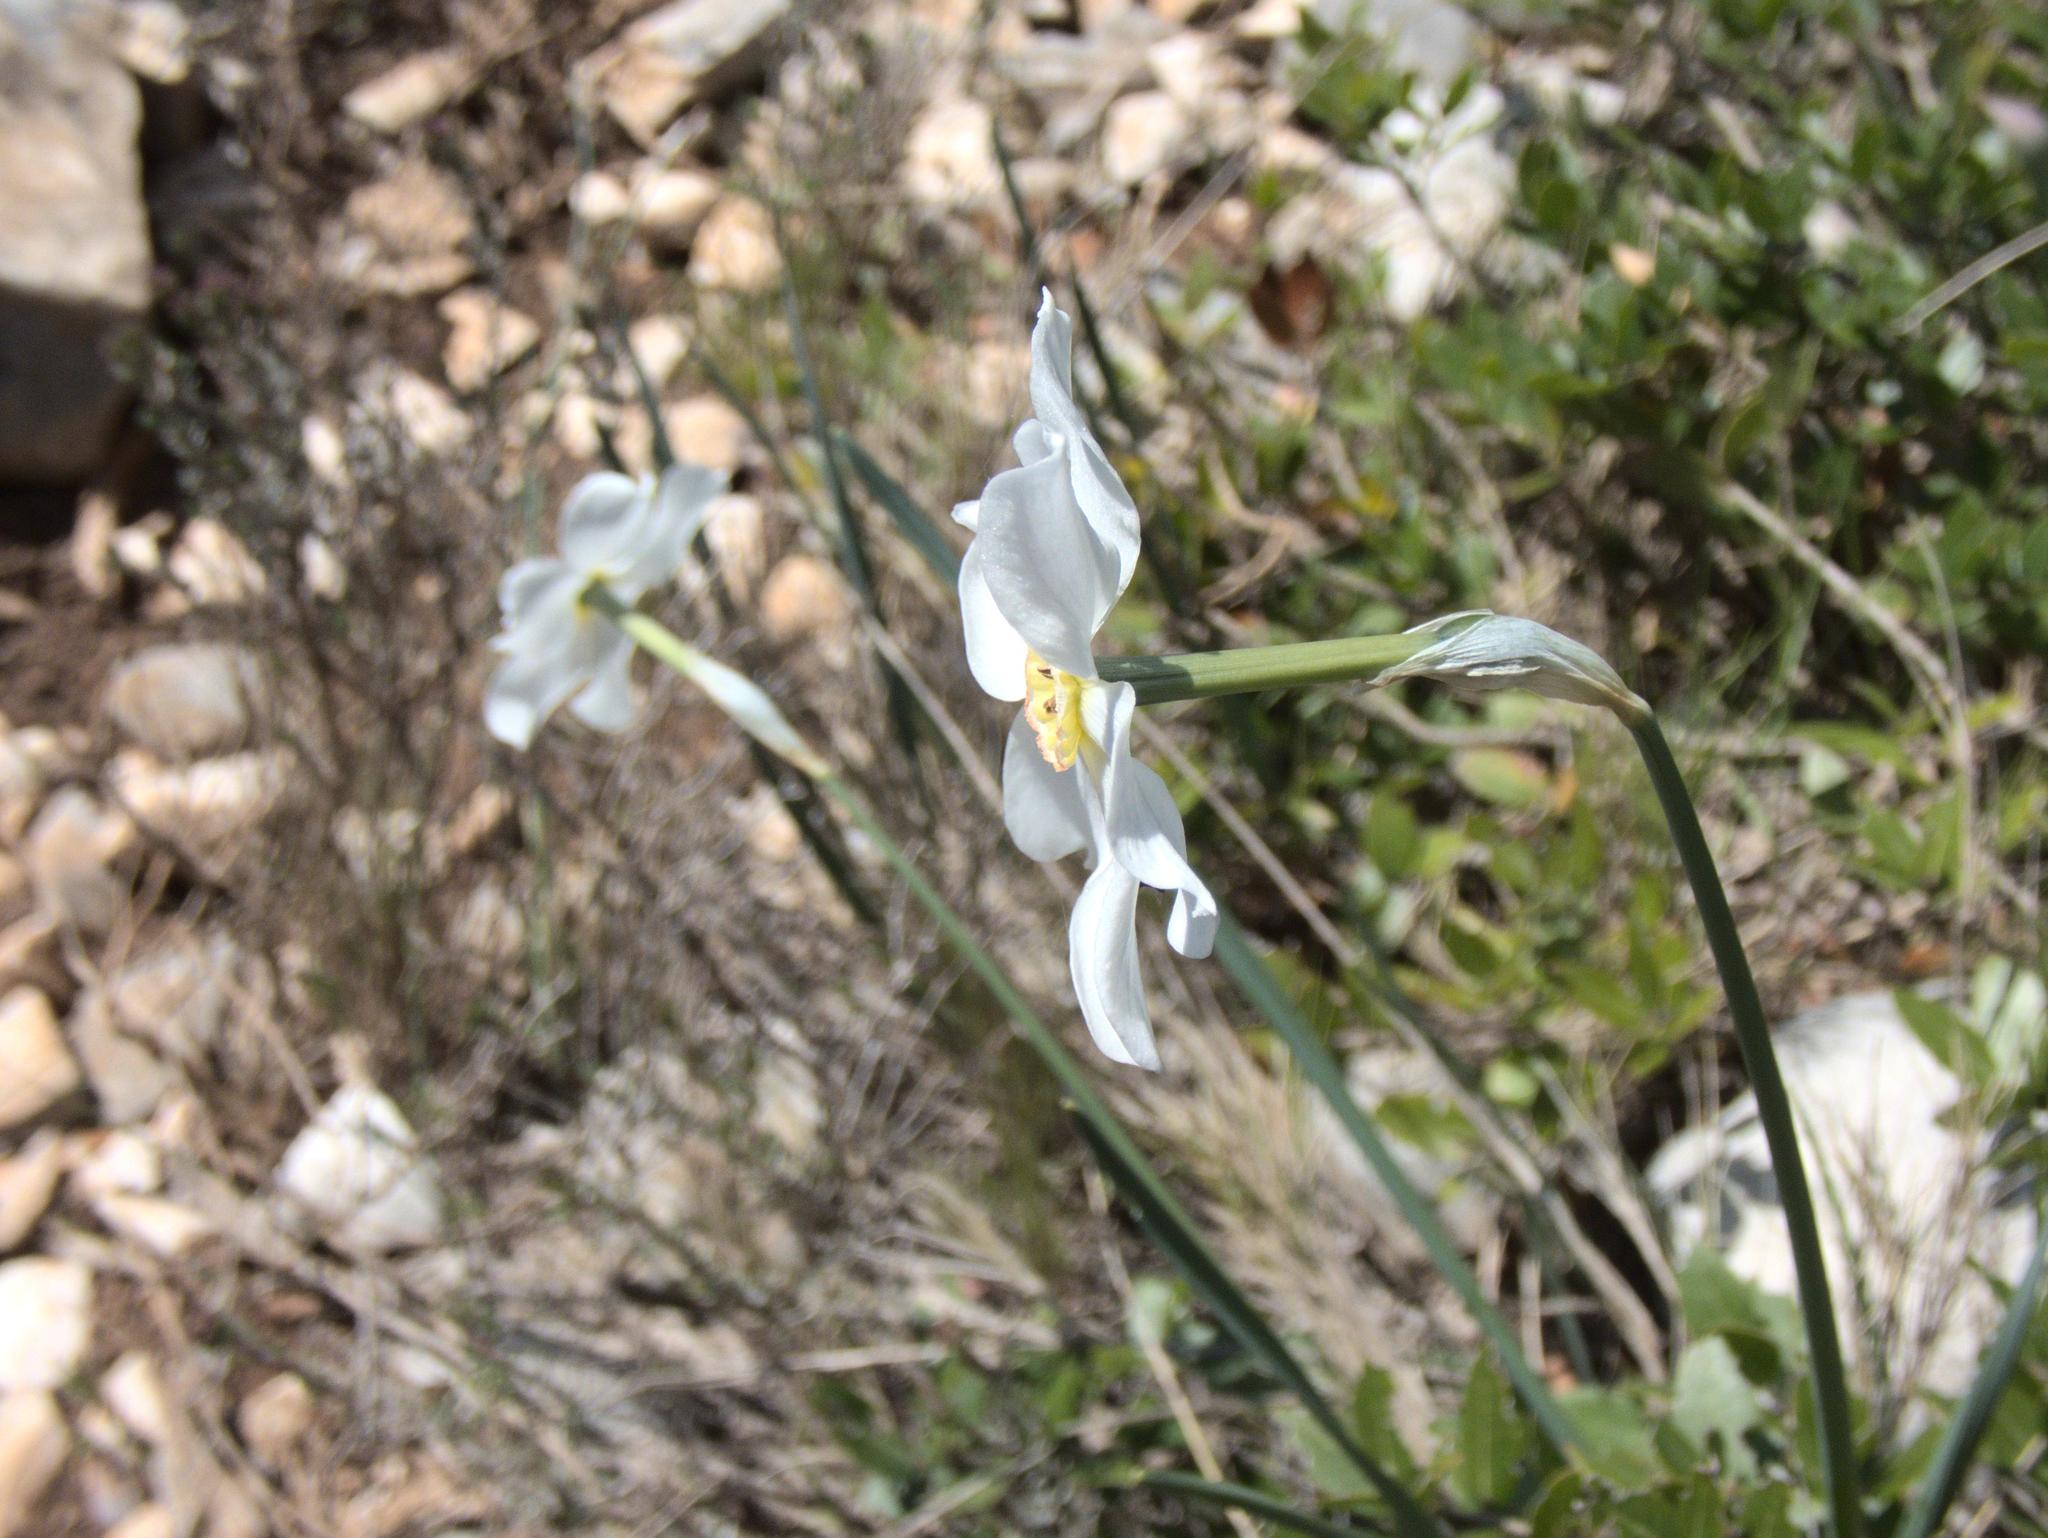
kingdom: Plantae
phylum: Tracheophyta
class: Liliopsida
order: Asparagales
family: Amaryllidaceae
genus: Narcissus
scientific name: Narcissus poeticus
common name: Pheasant's-eye daffodil
